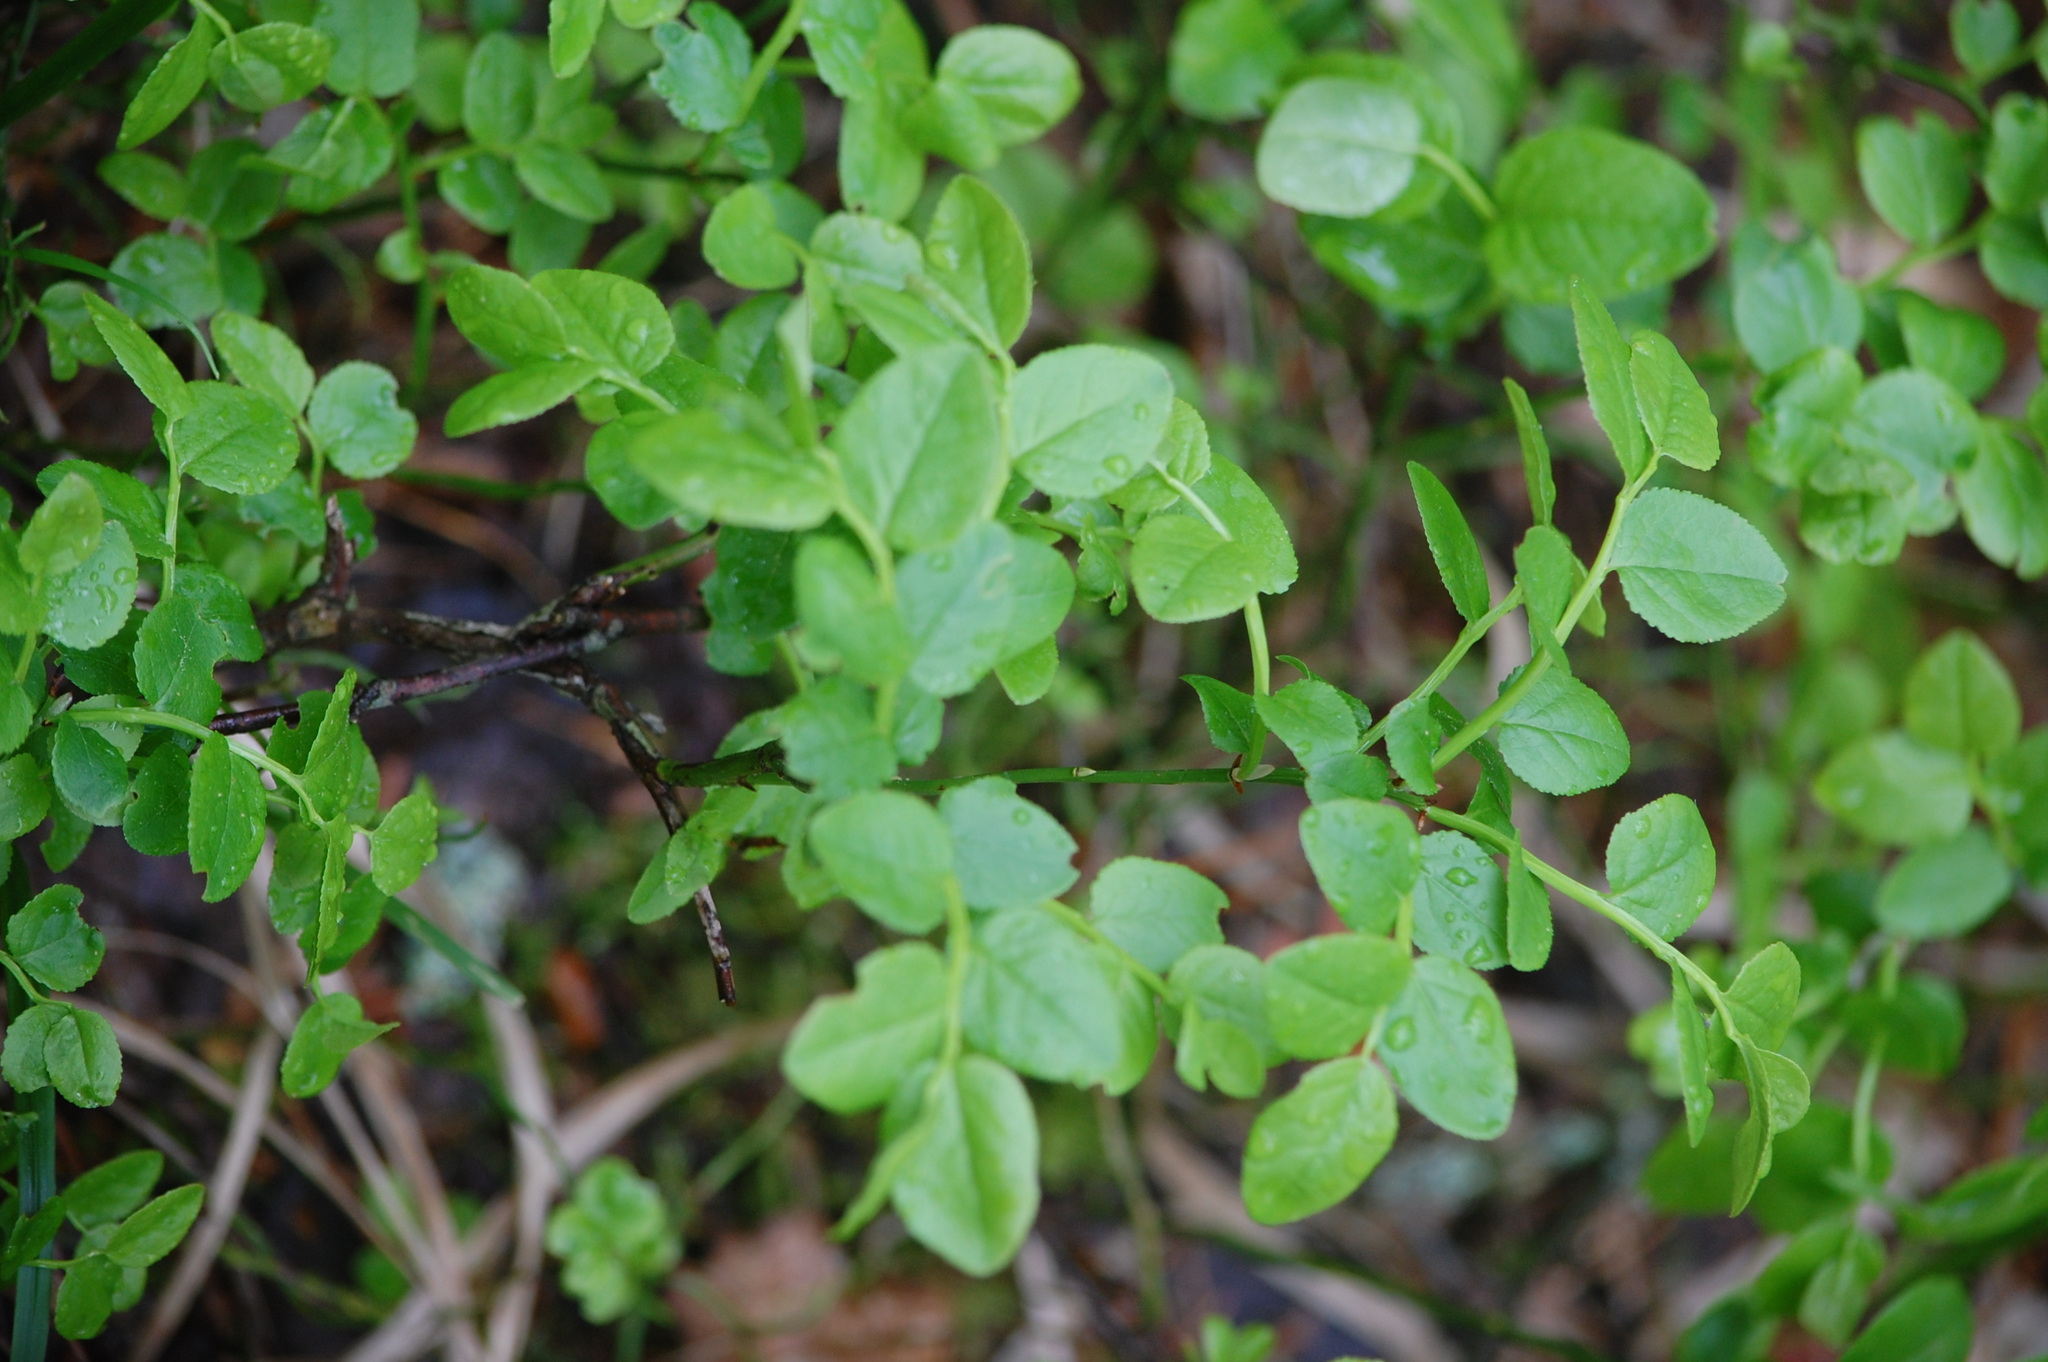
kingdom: Plantae
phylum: Tracheophyta
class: Magnoliopsida
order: Ericales
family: Ericaceae
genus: Vaccinium
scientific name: Vaccinium myrtillus
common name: Bilberry
